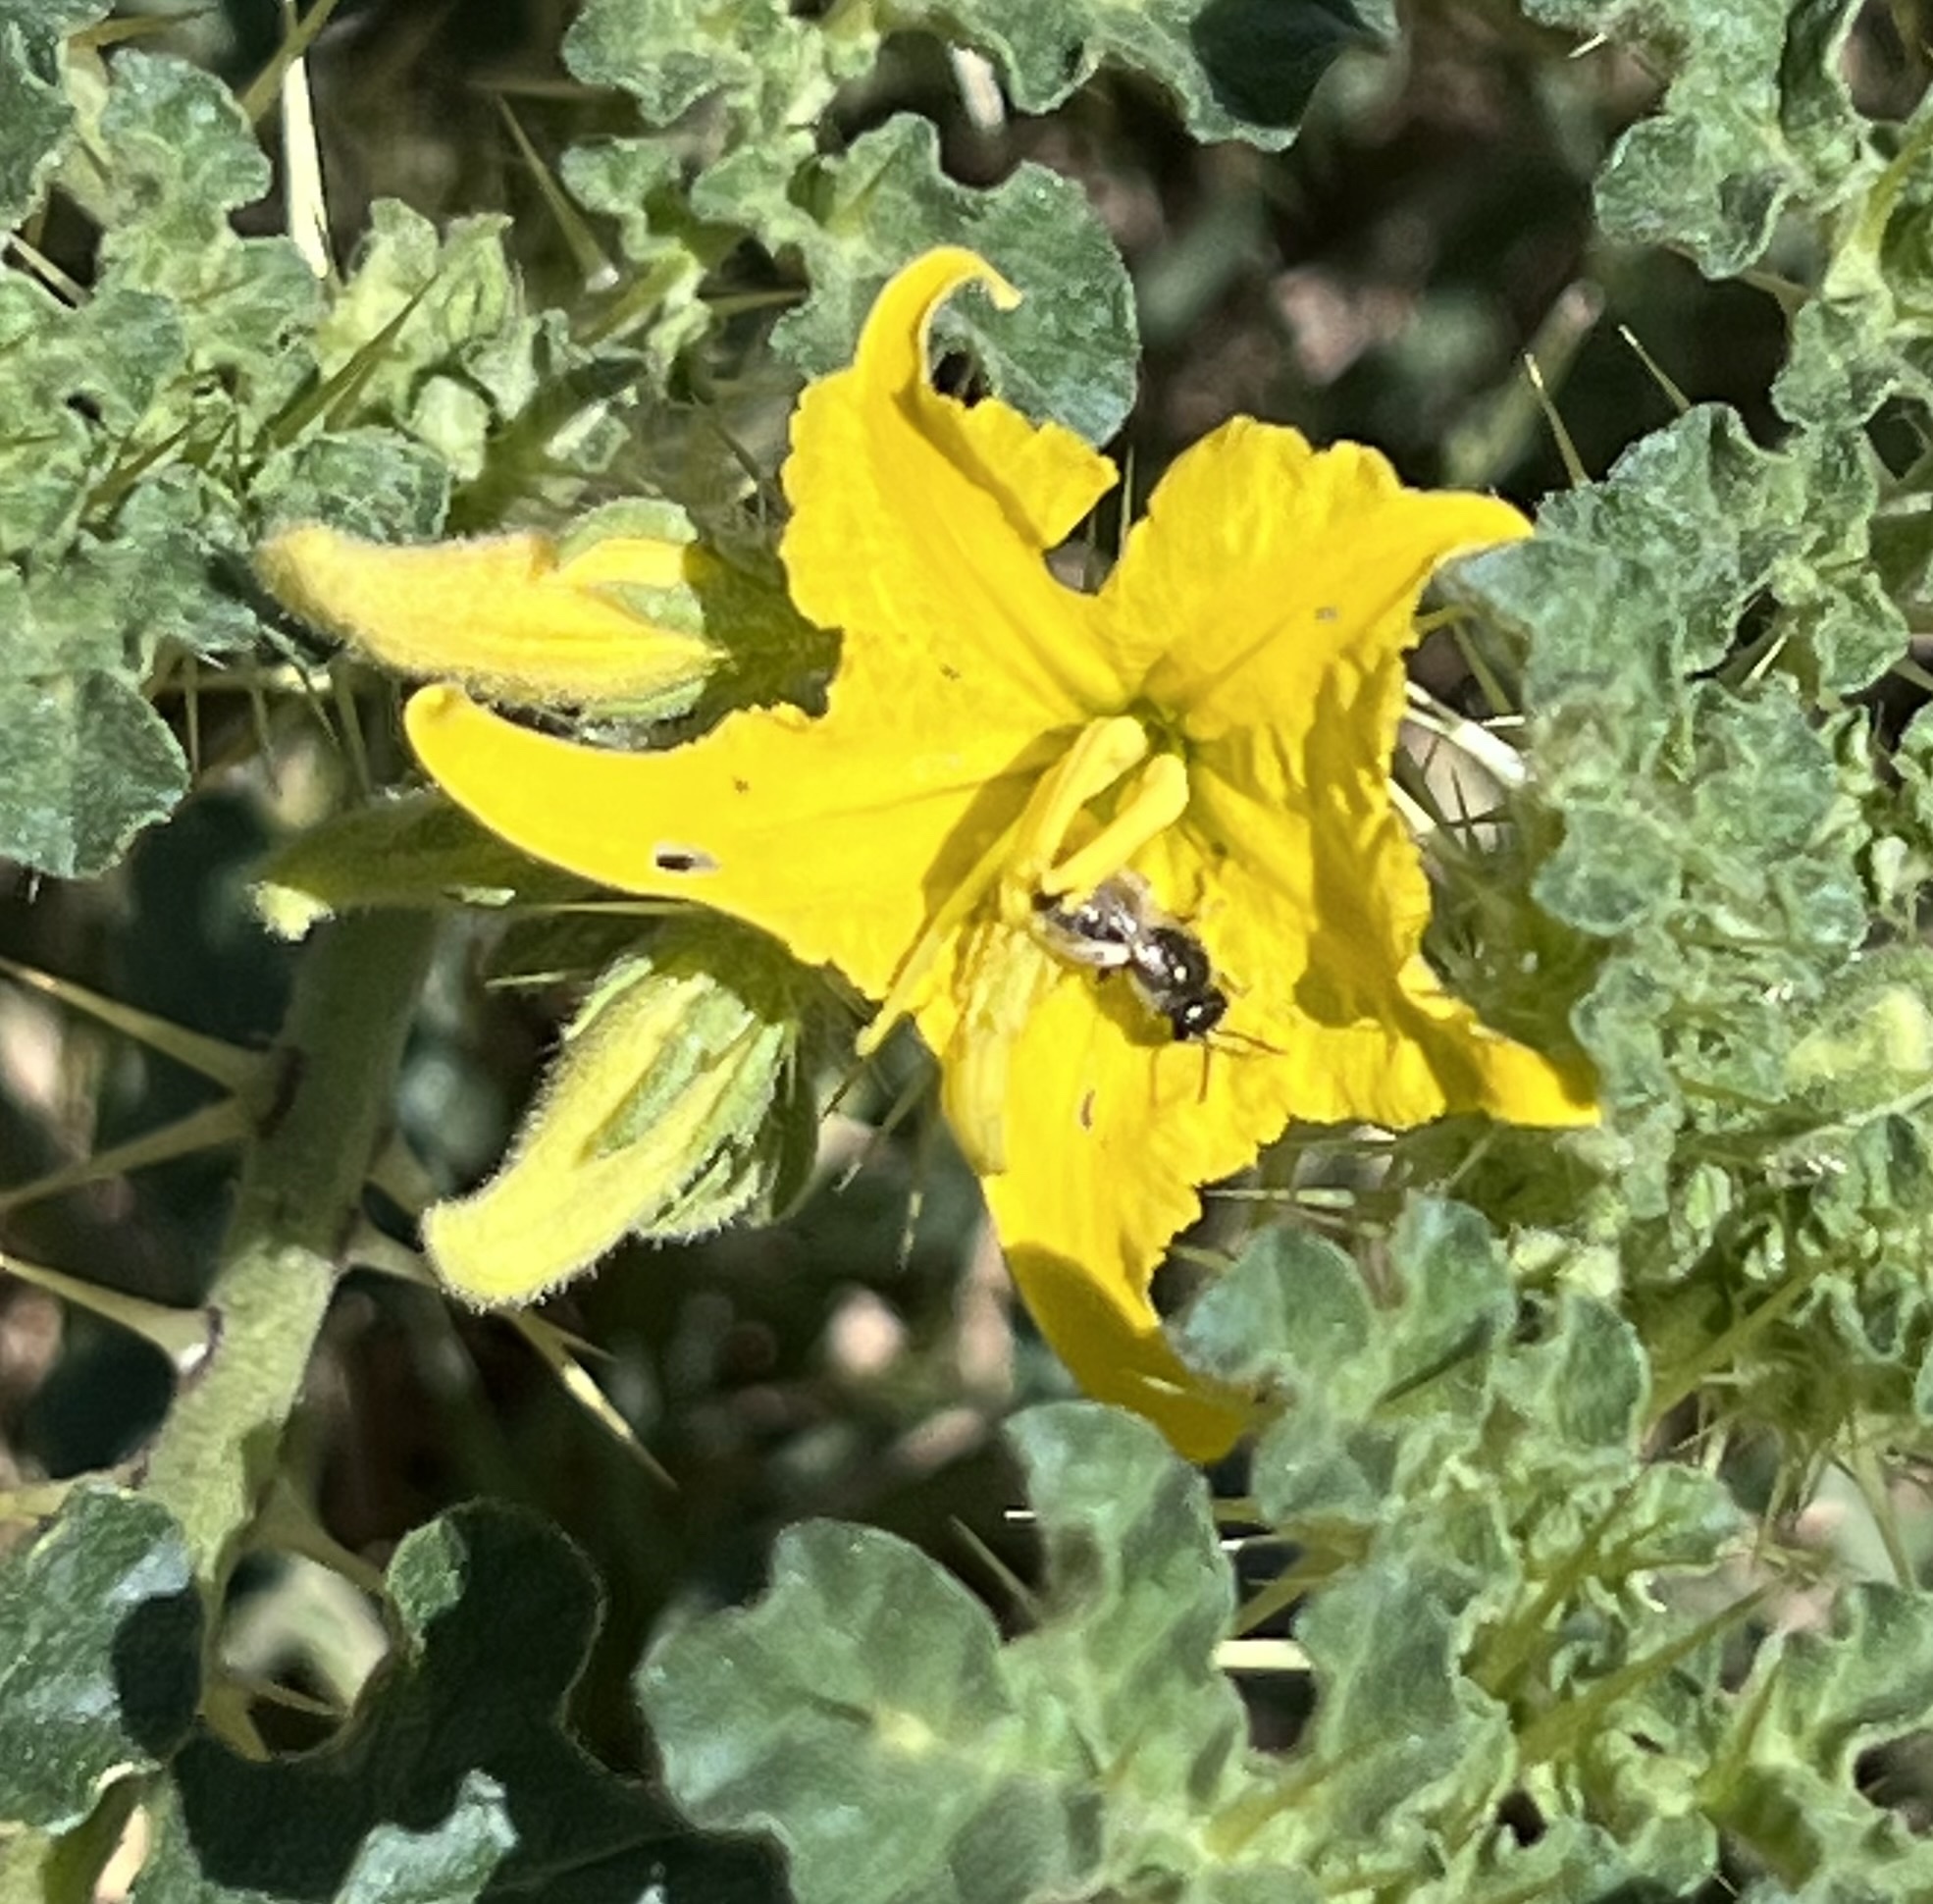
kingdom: Plantae
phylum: Tracheophyta
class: Magnoliopsida
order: Solanales
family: Solanaceae
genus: Solanum
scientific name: Solanum angustifolium
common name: Buffalobur nightshade
